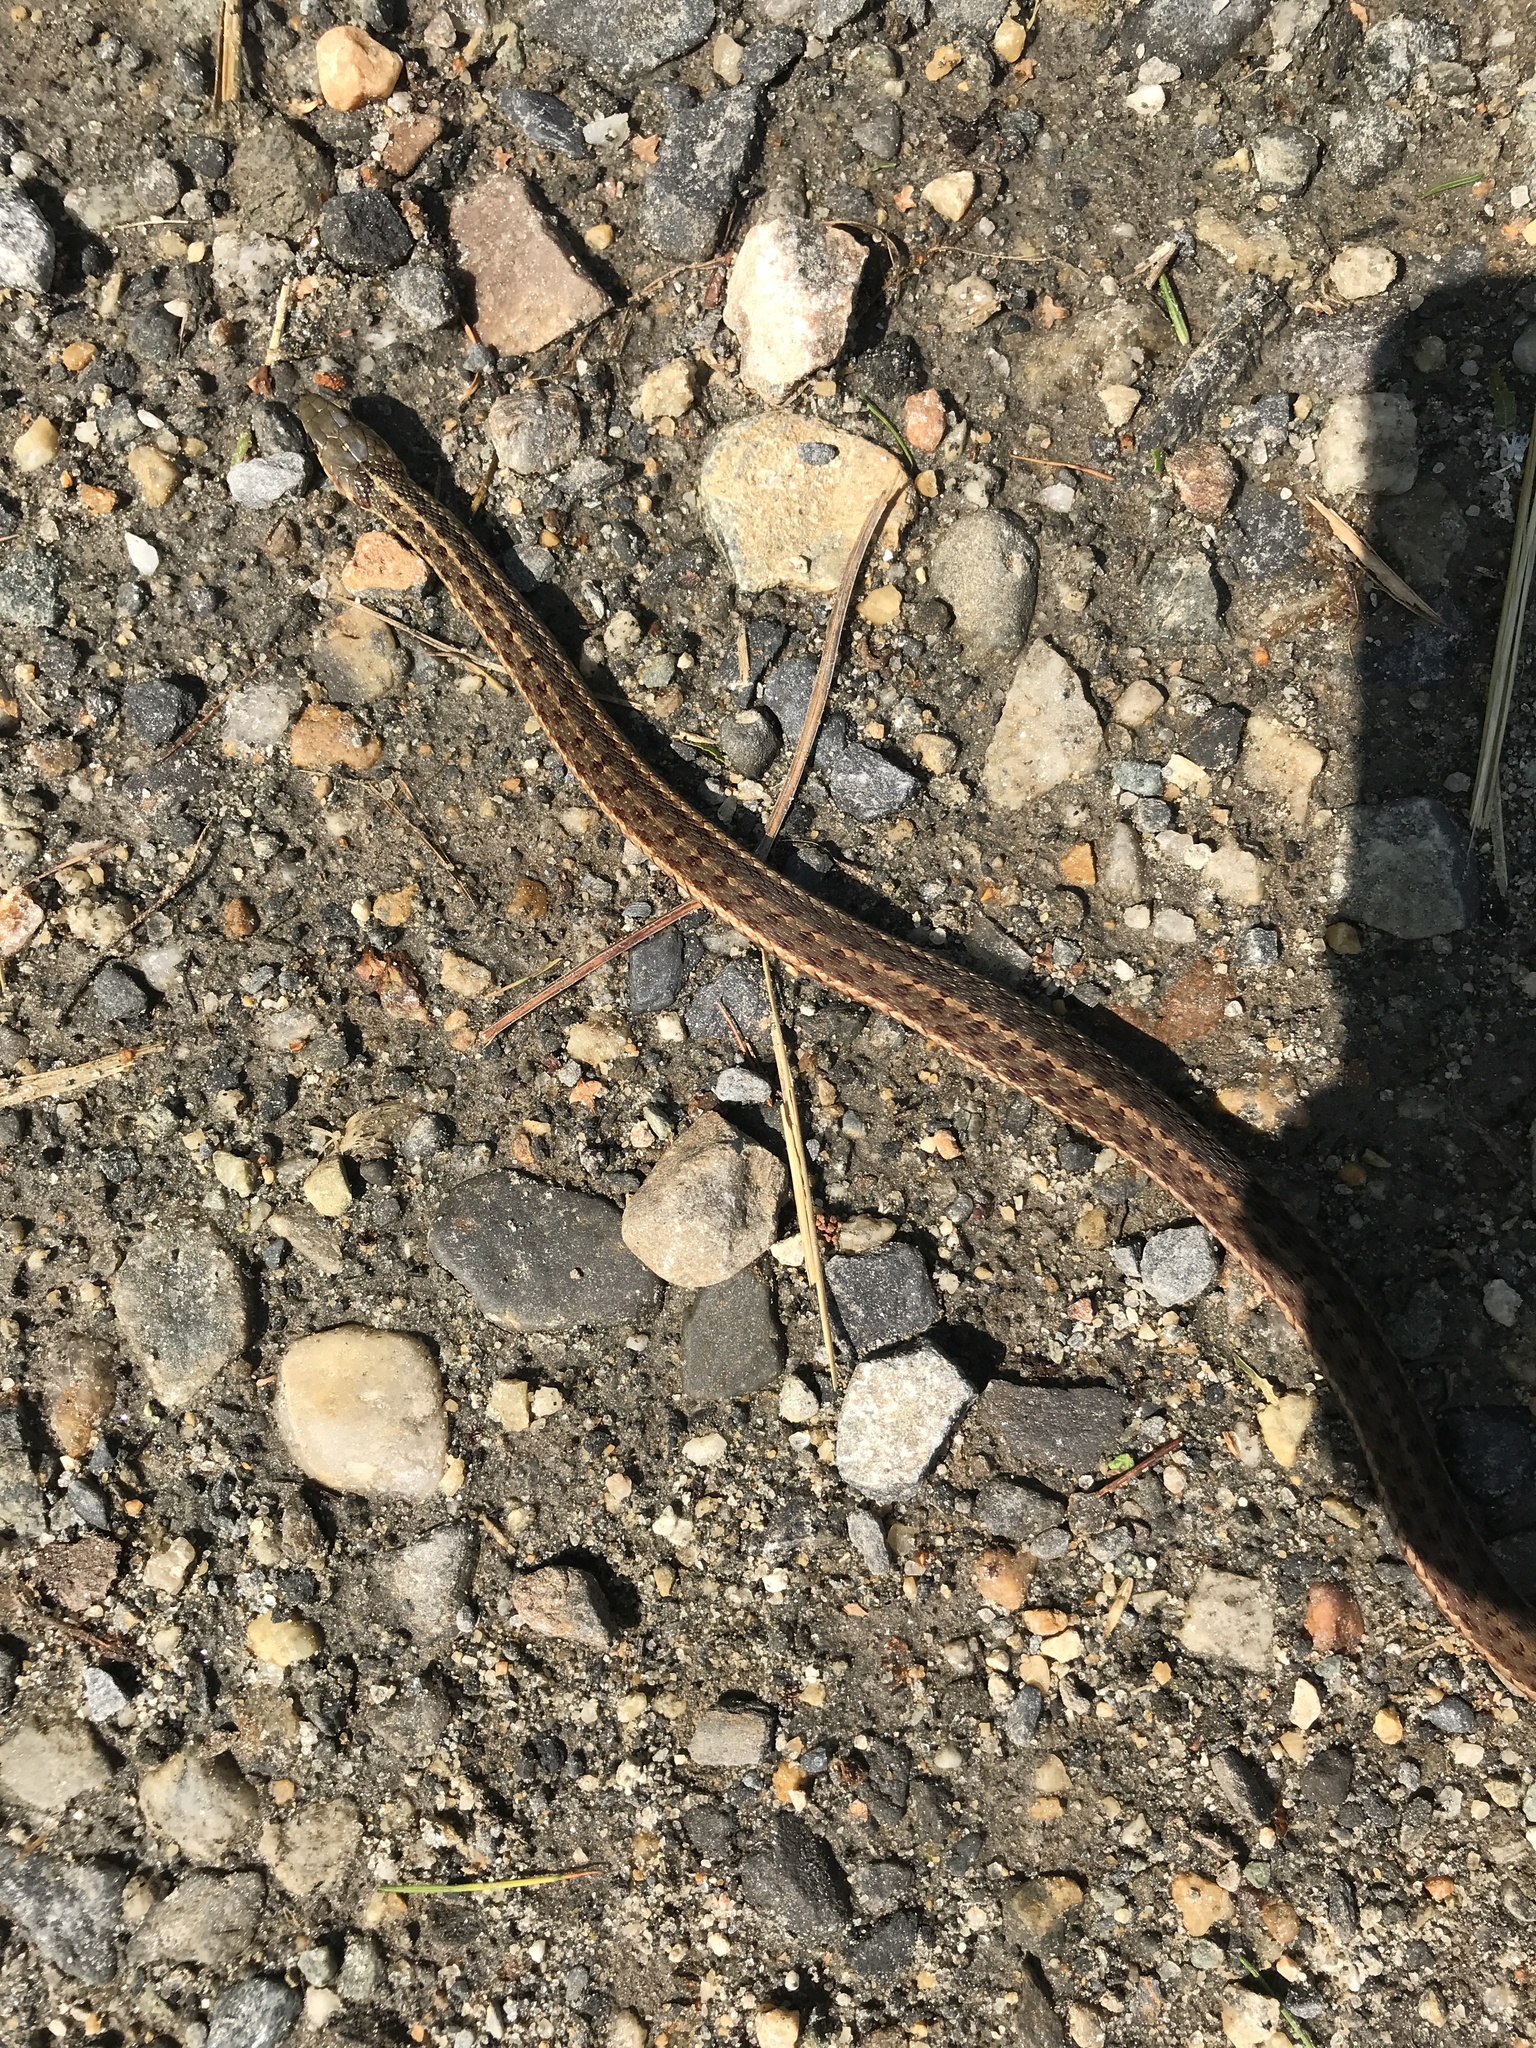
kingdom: Animalia
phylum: Chordata
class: Squamata
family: Colubridae
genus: Thamnophis
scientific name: Thamnophis sirtalis
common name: Common garter snake
